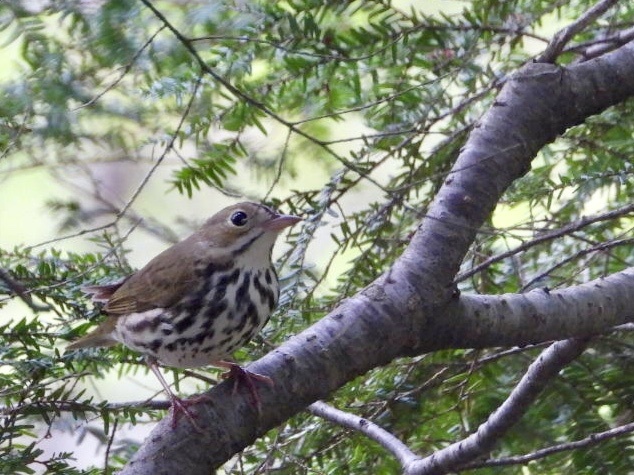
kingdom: Animalia
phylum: Chordata
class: Aves
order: Passeriformes
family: Parulidae
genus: Seiurus
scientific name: Seiurus aurocapilla
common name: Ovenbird
